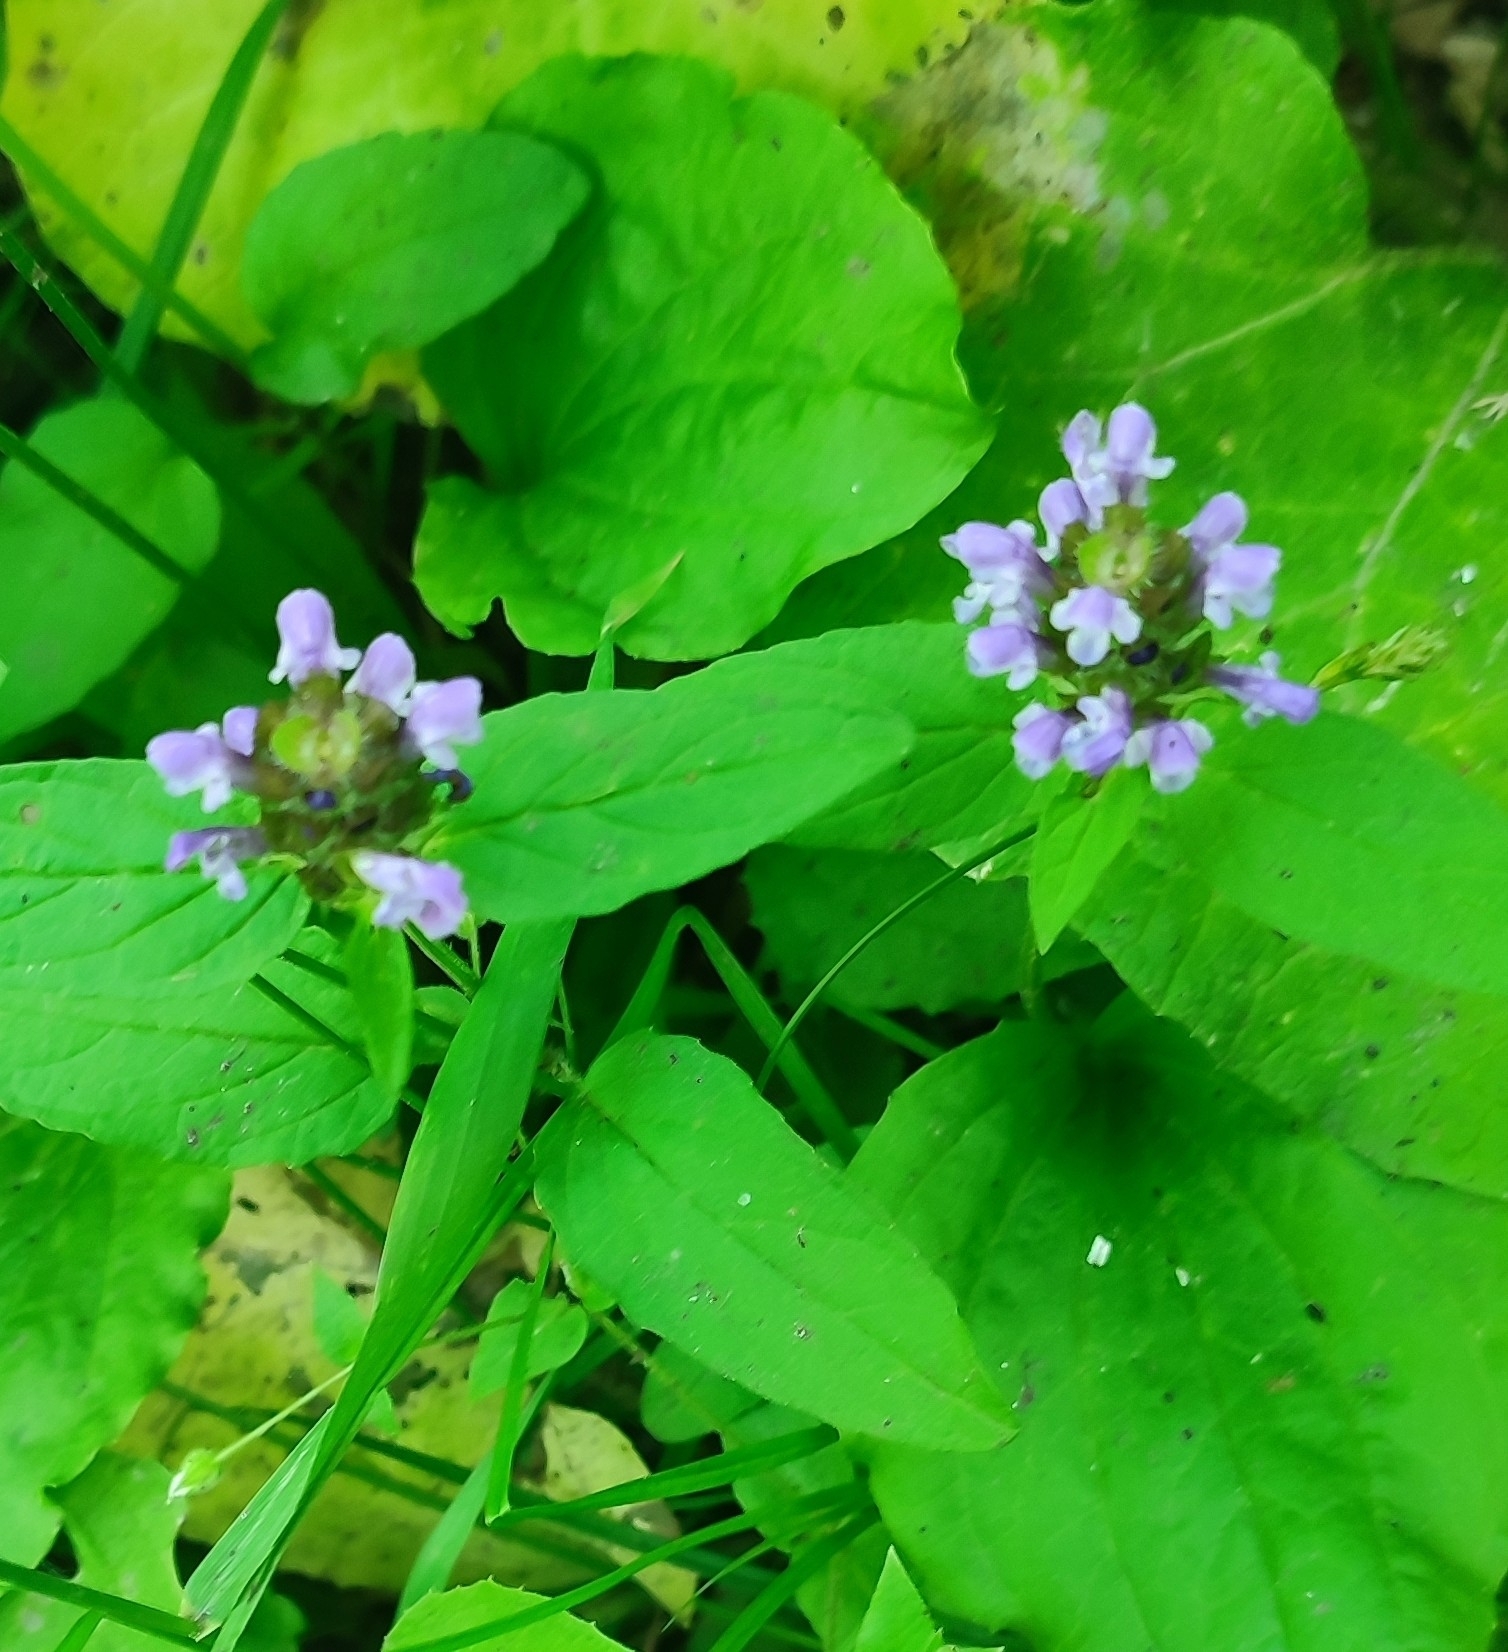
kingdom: Plantae
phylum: Tracheophyta
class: Magnoliopsida
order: Lamiales
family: Lamiaceae
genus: Prunella
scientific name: Prunella vulgaris
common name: Heal-all
